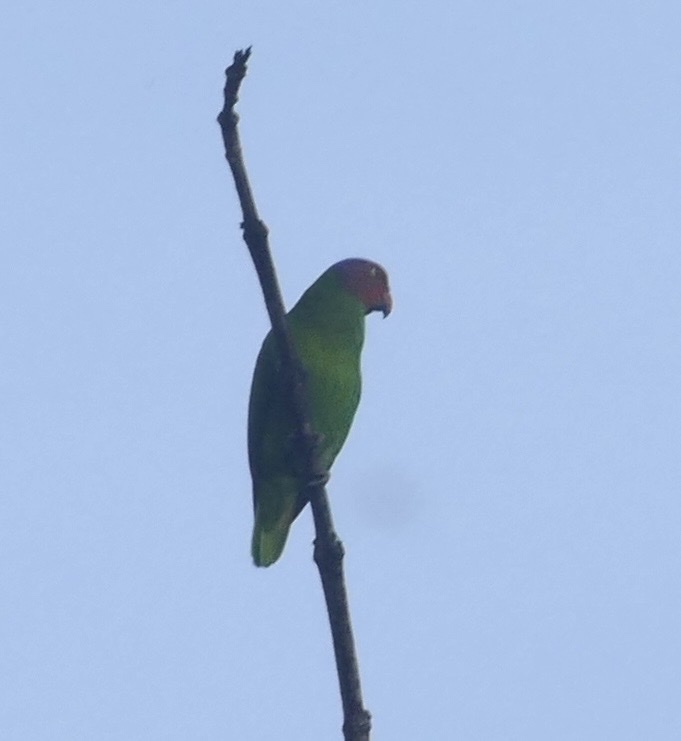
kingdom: Animalia
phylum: Chordata
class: Aves
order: Psittaciformes
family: Psittacidae
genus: Geoffroyus
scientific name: Geoffroyus geoffroyi
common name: Red-cheeked parrot
